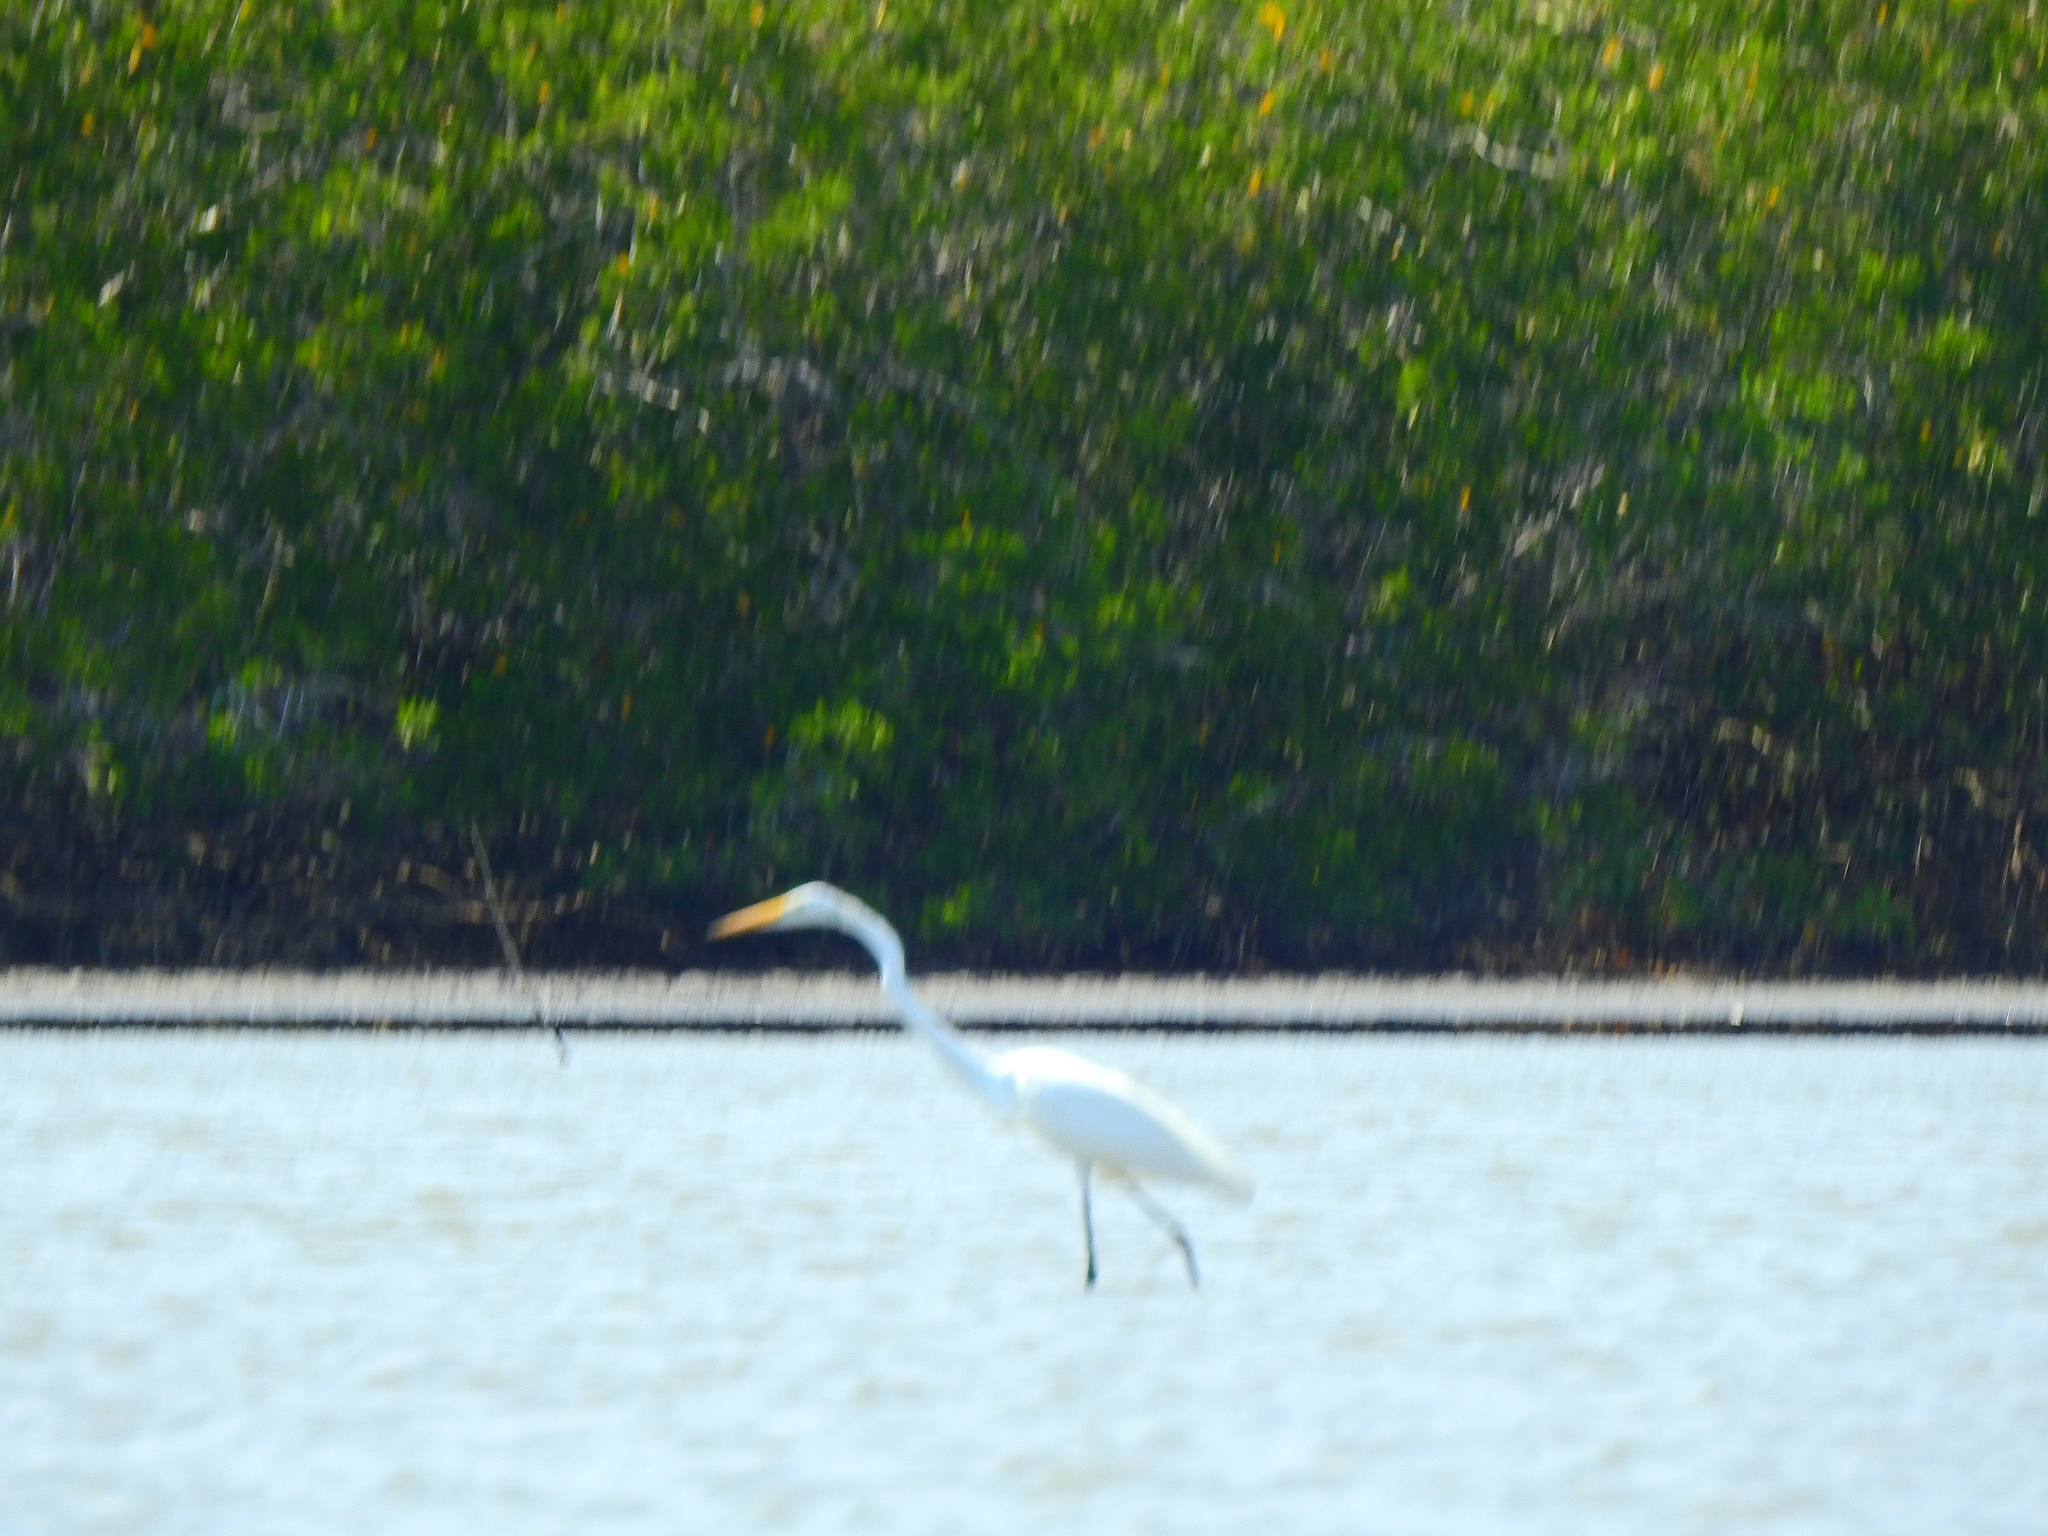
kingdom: Animalia
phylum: Chordata
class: Aves
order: Pelecaniformes
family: Ardeidae
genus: Ardea
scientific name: Ardea alba
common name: Great egret
